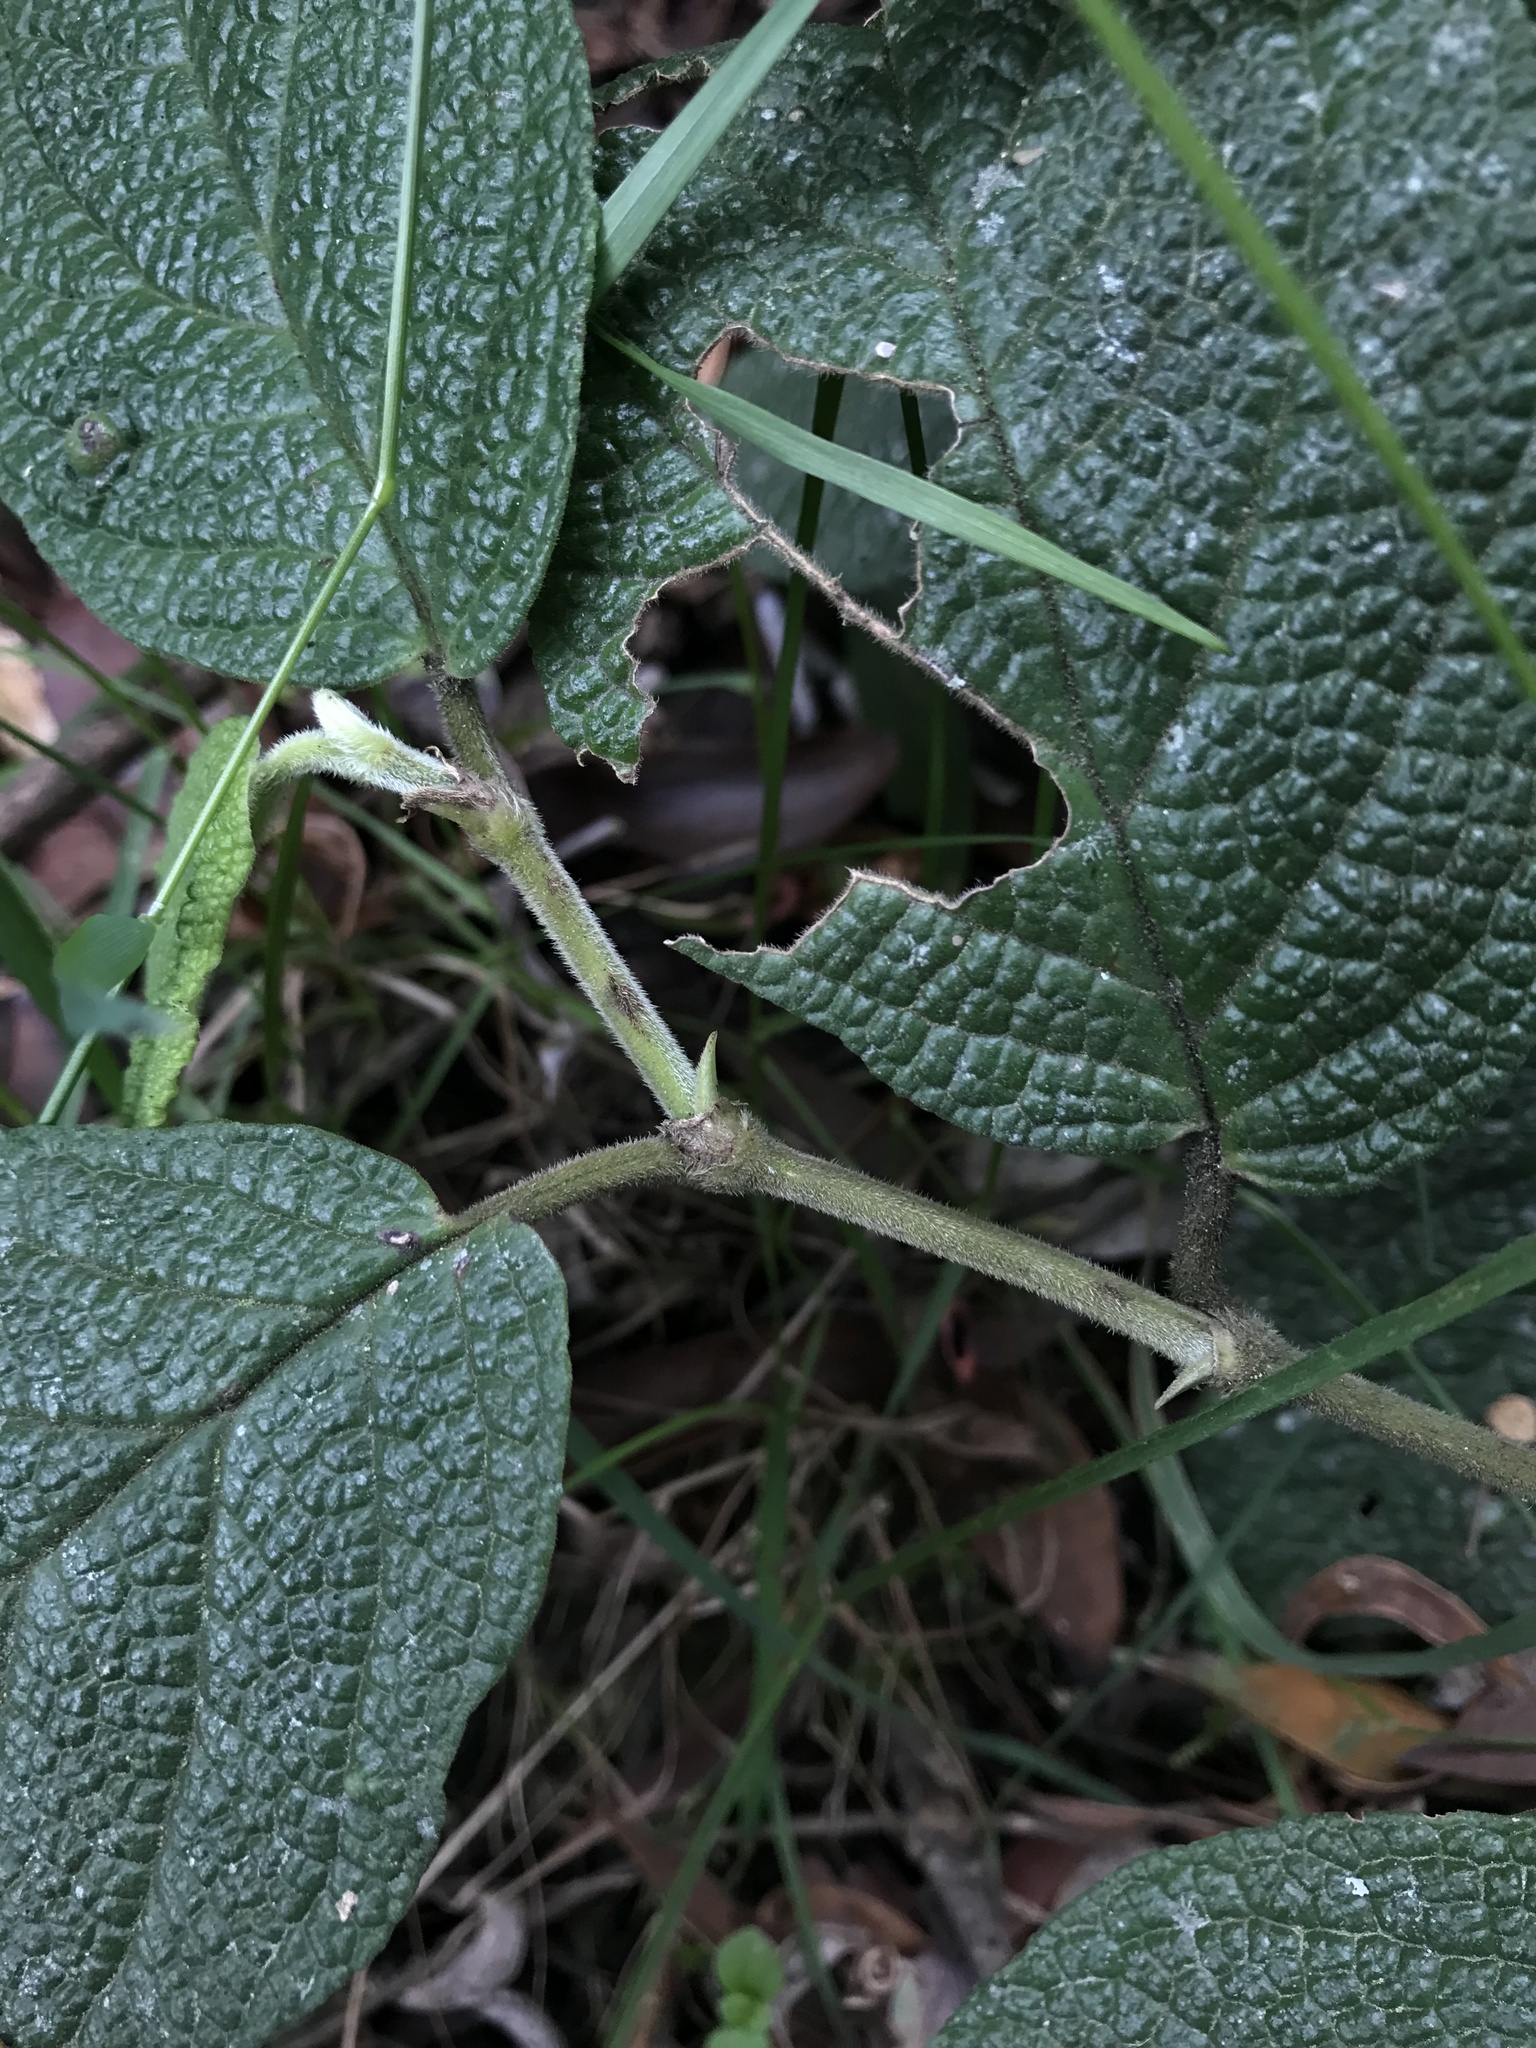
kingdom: Plantae
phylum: Tracheophyta
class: Magnoliopsida
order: Piperales
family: Piperaceae
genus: Piper
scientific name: Piper artanthe
